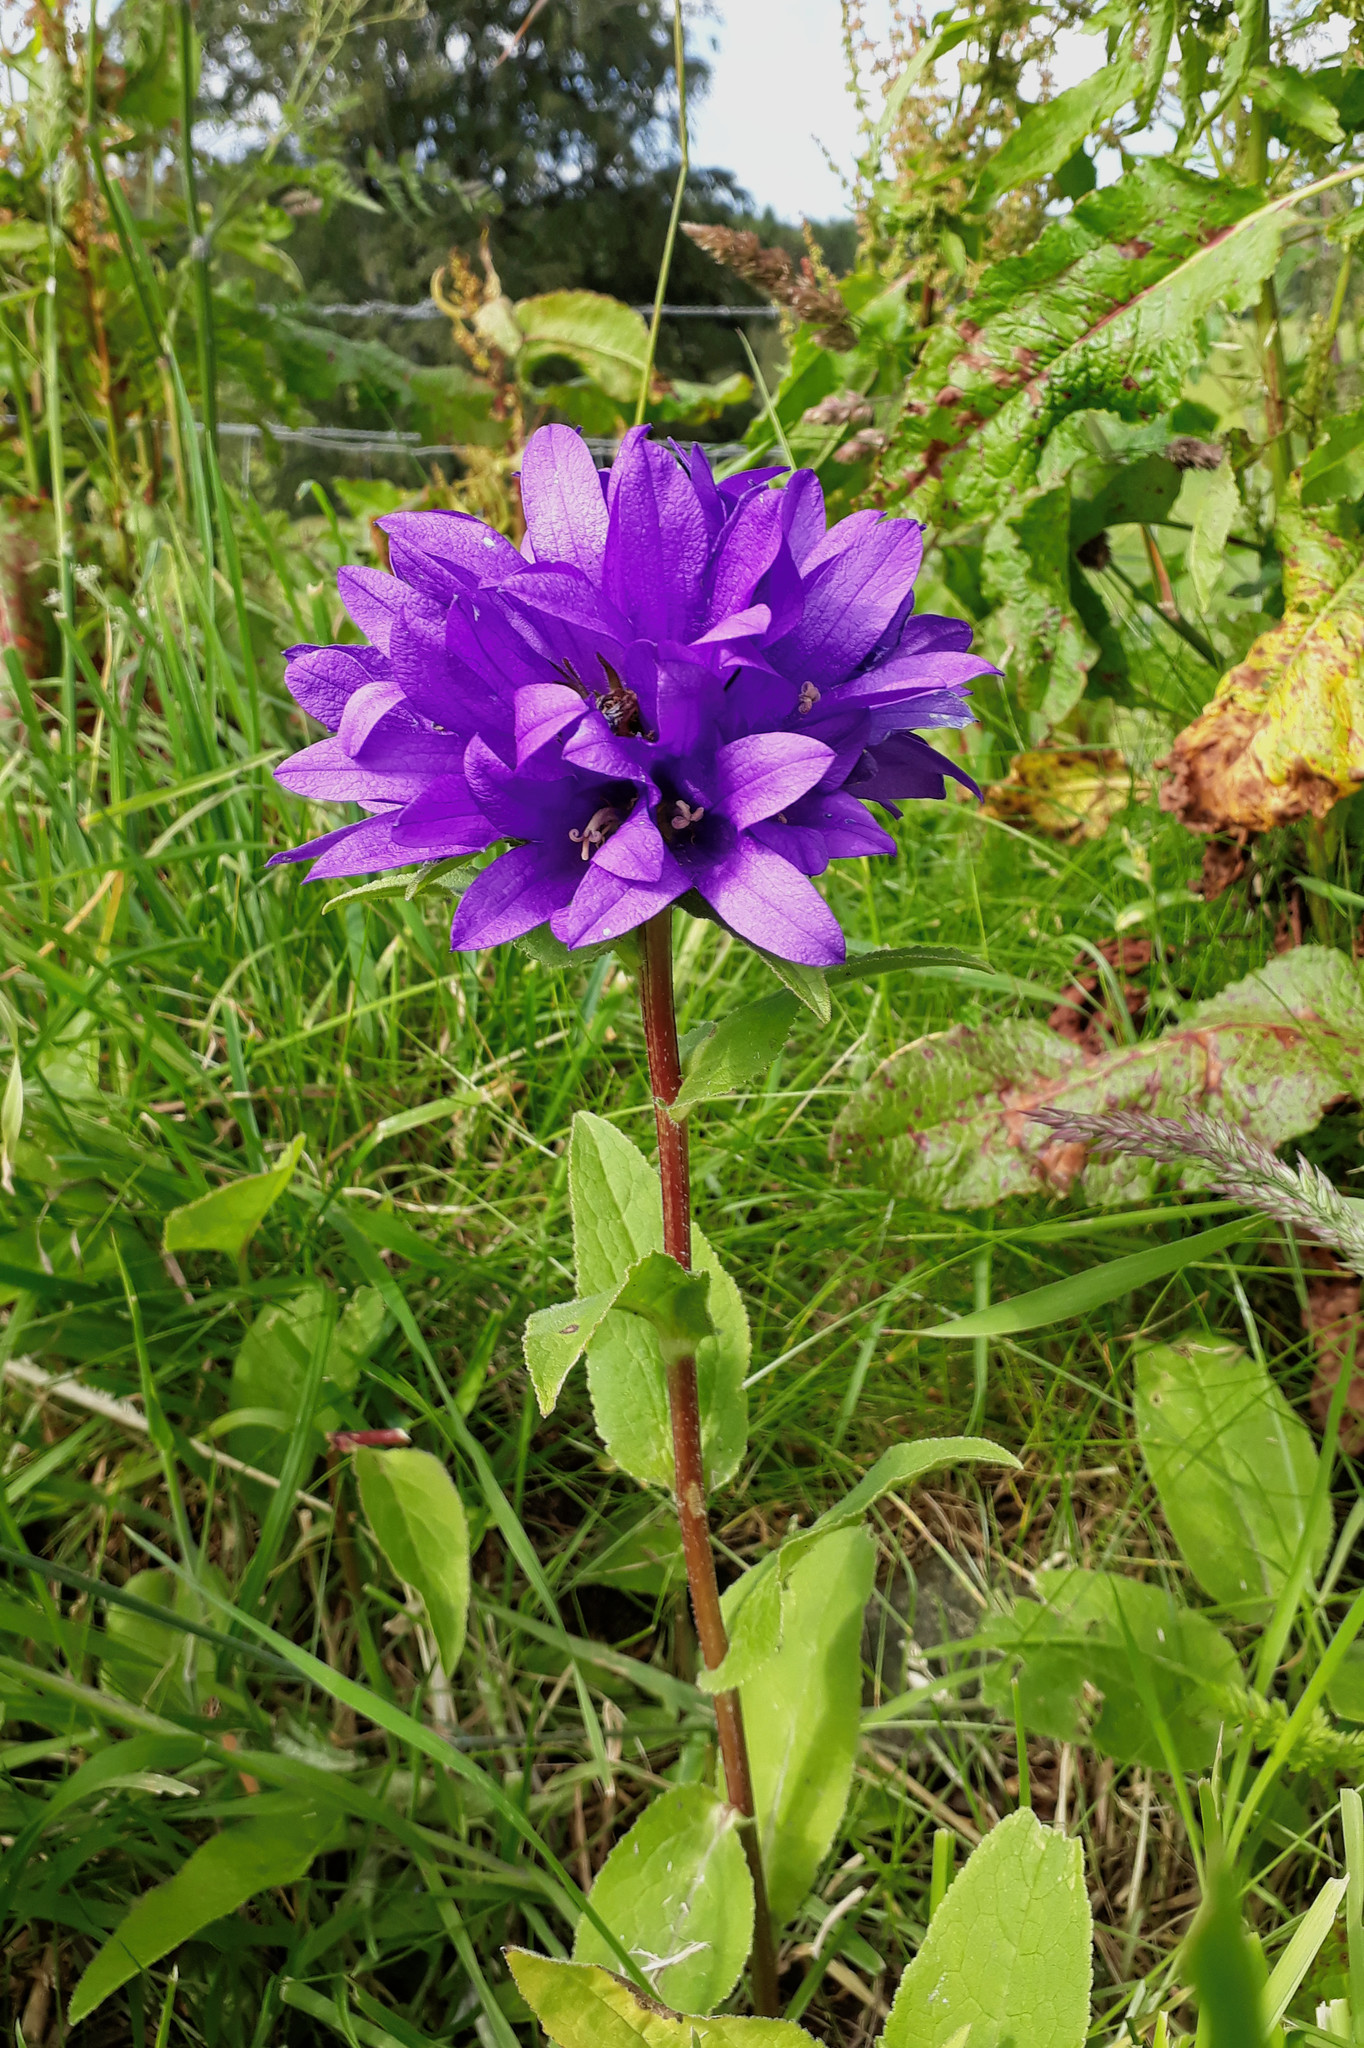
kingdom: Plantae
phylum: Tracheophyta
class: Magnoliopsida
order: Asterales
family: Campanulaceae
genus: Campanula
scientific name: Campanula glomerata
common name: Clustered bellflower
